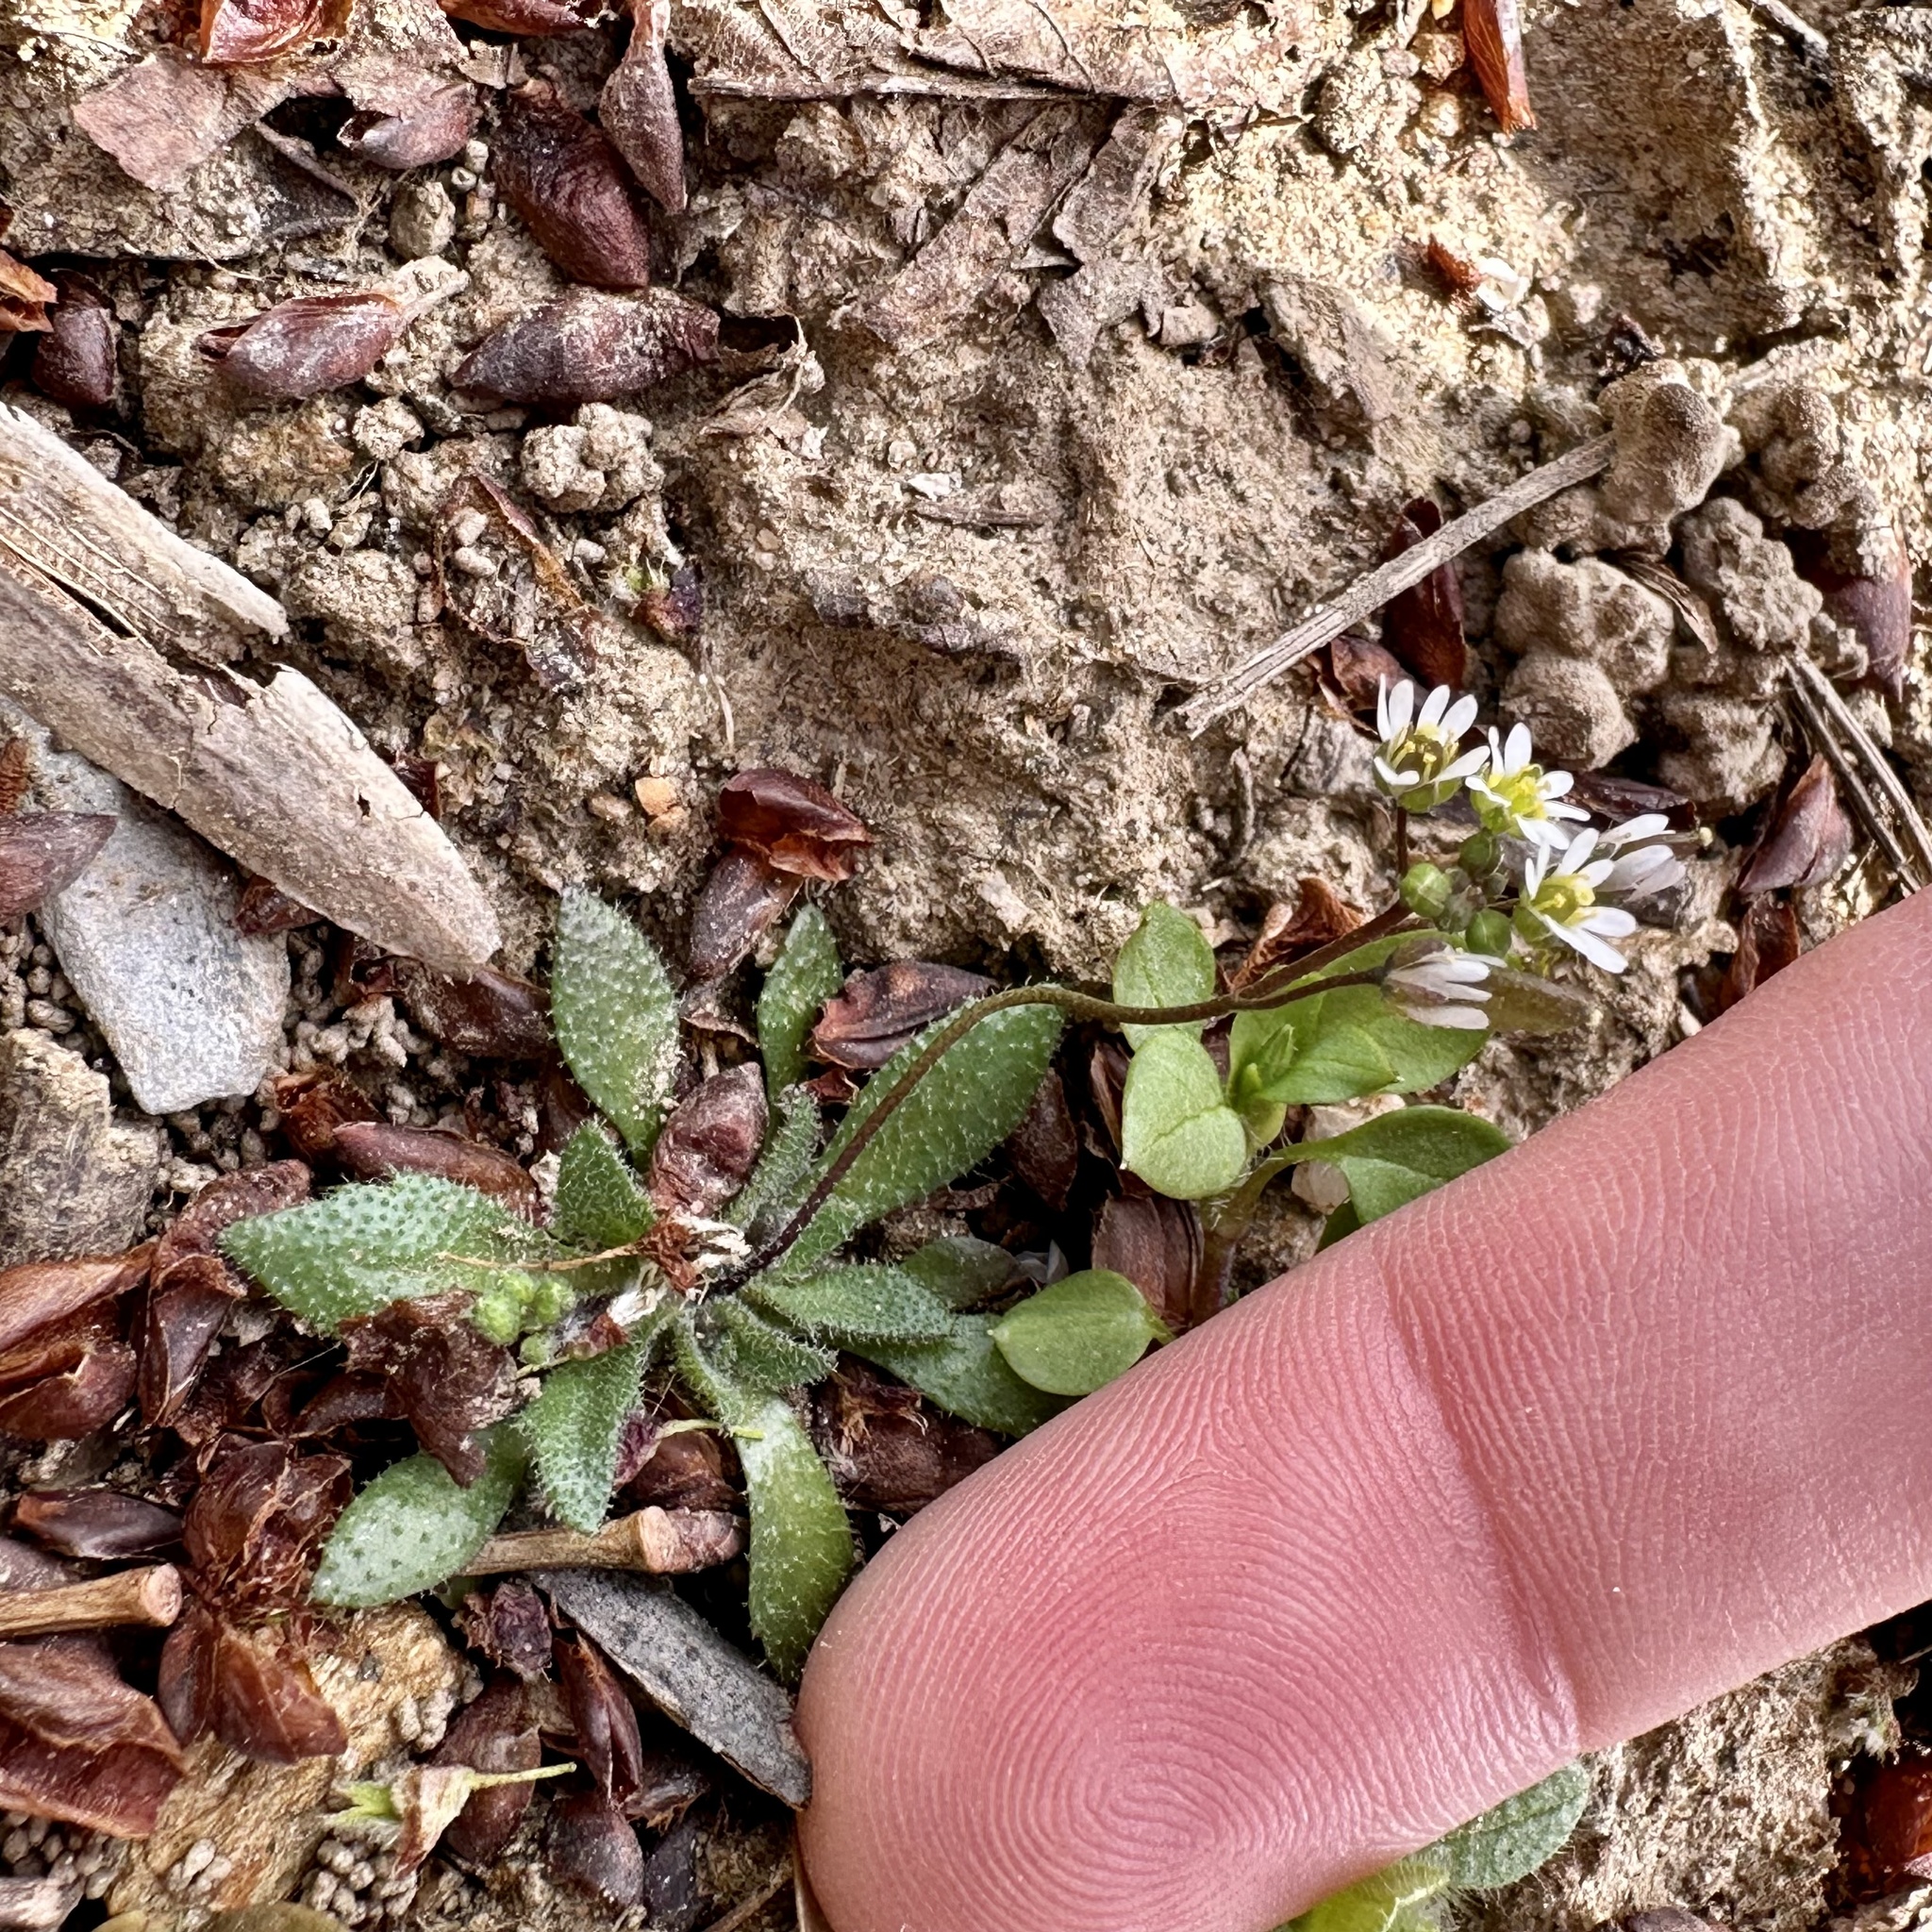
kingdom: Plantae
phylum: Tracheophyta
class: Magnoliopsida
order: Brassicales
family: Brassicaceae
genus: Draba
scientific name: Draba verna
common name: Spring draba
